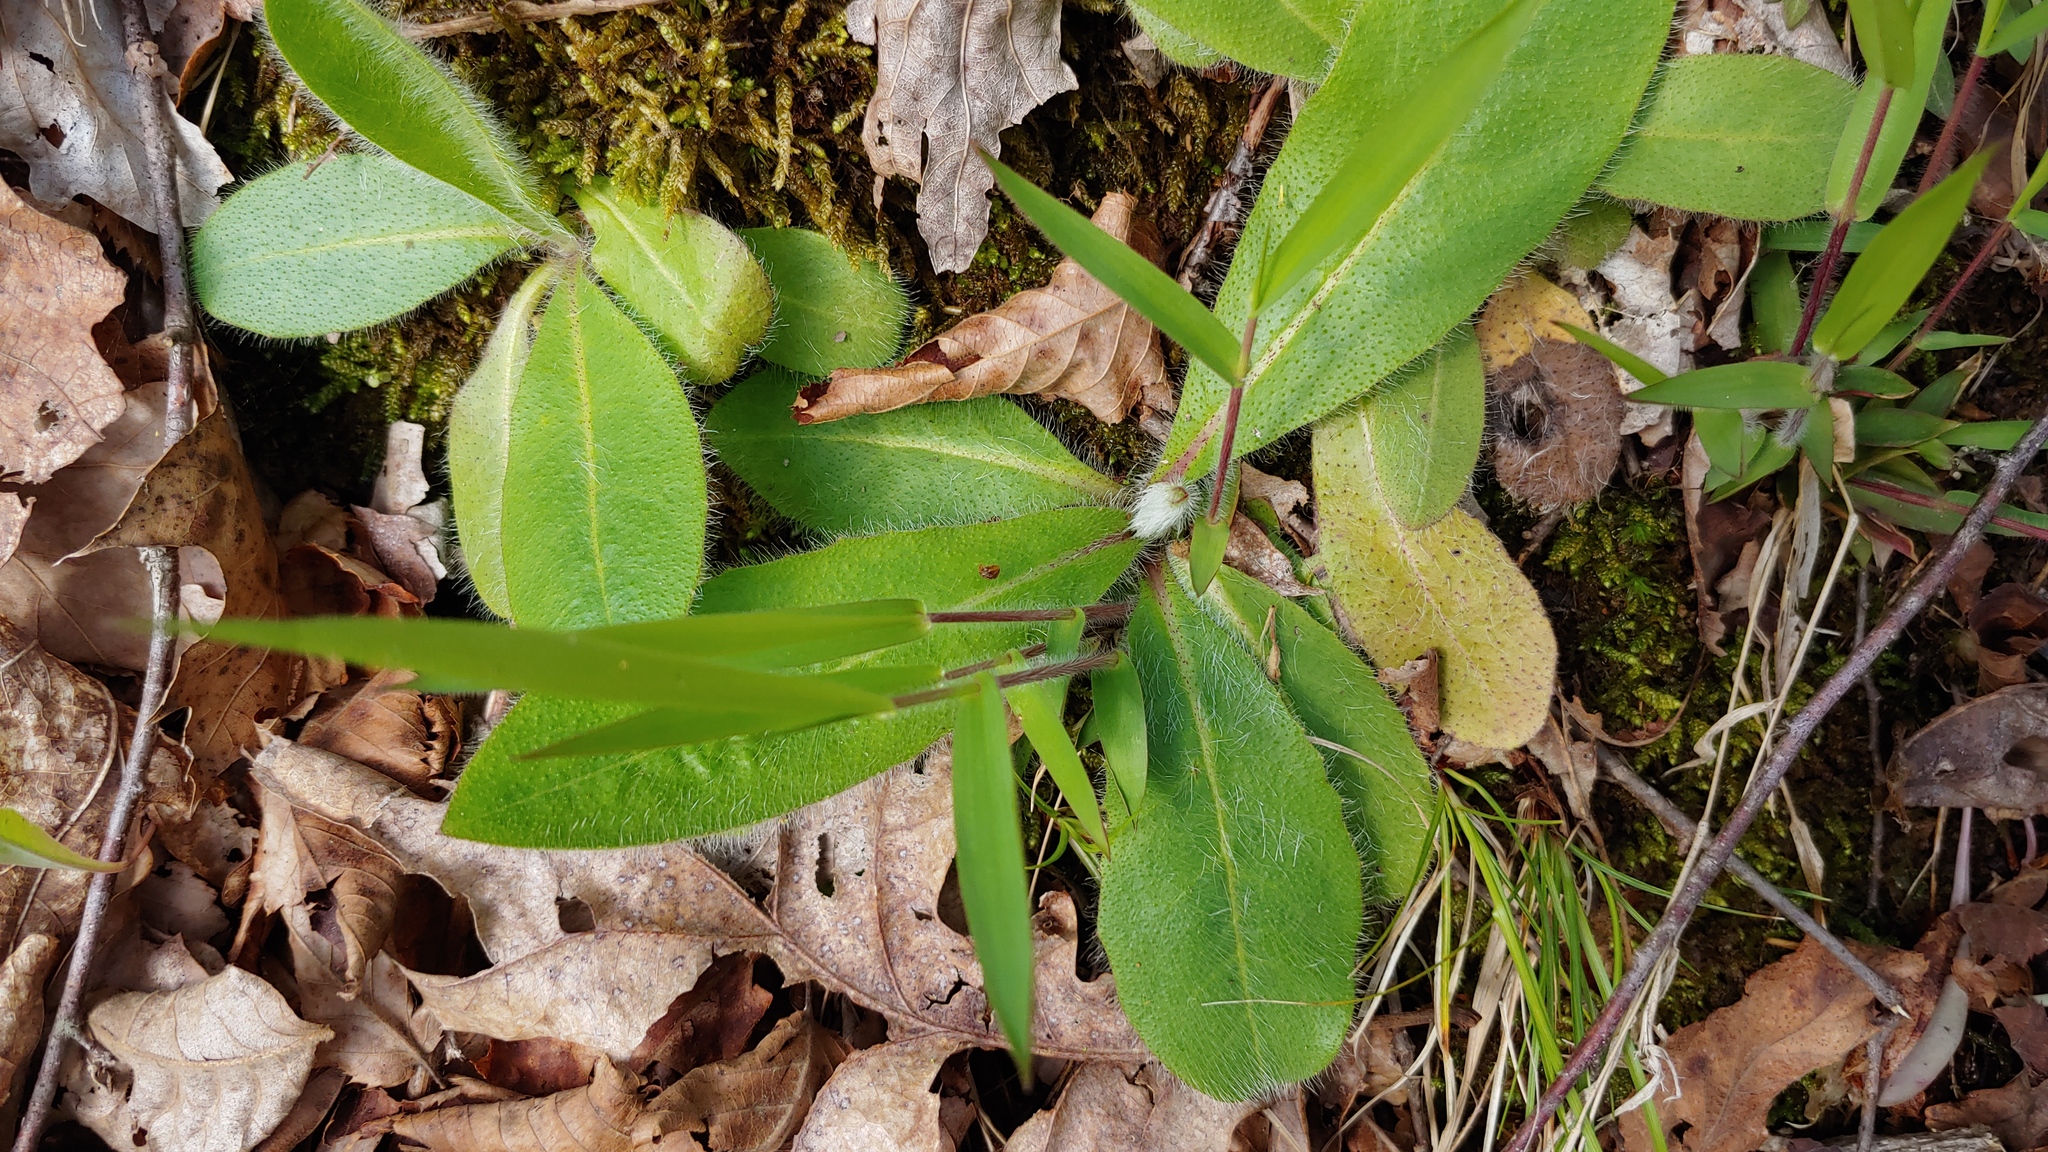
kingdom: Plantae
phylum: Tracheophyta
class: Magnoliopsida
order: Asterales
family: Asteraceae
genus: Hieracium
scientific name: Hieracium gronovii
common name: Beaked hawkweed
